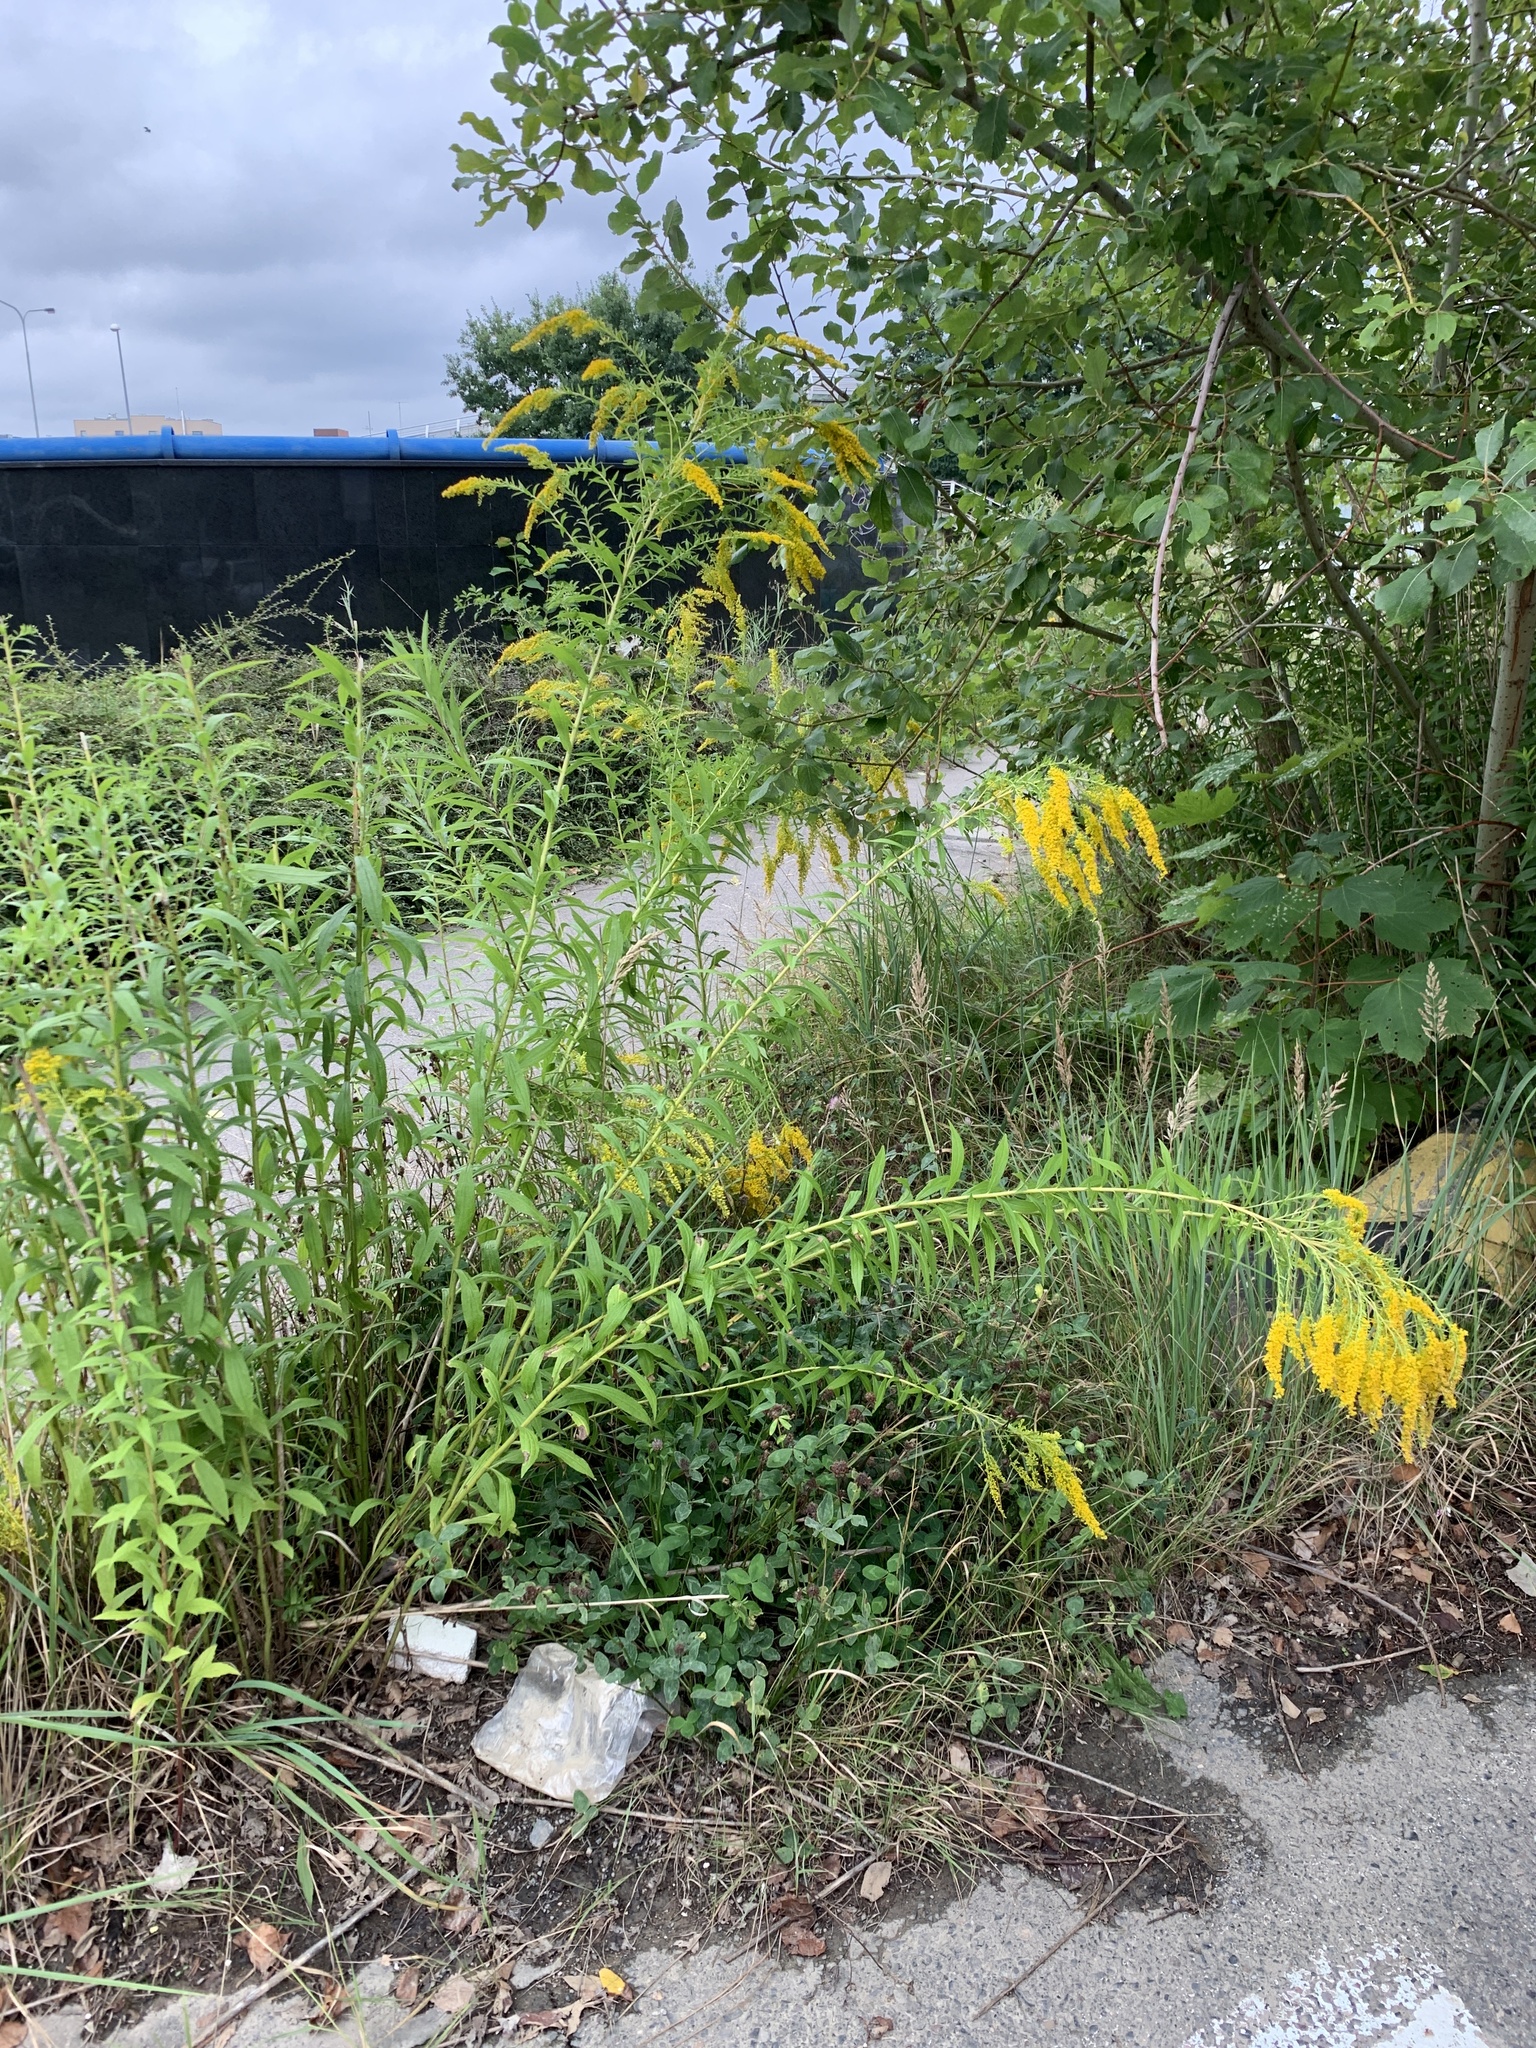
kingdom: Plantae
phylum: Tracheophyta
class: Magnoliopsida
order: Asterales
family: Asteraceae
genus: Solidago
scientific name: Solidago canadensis
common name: Canada goldenrod
